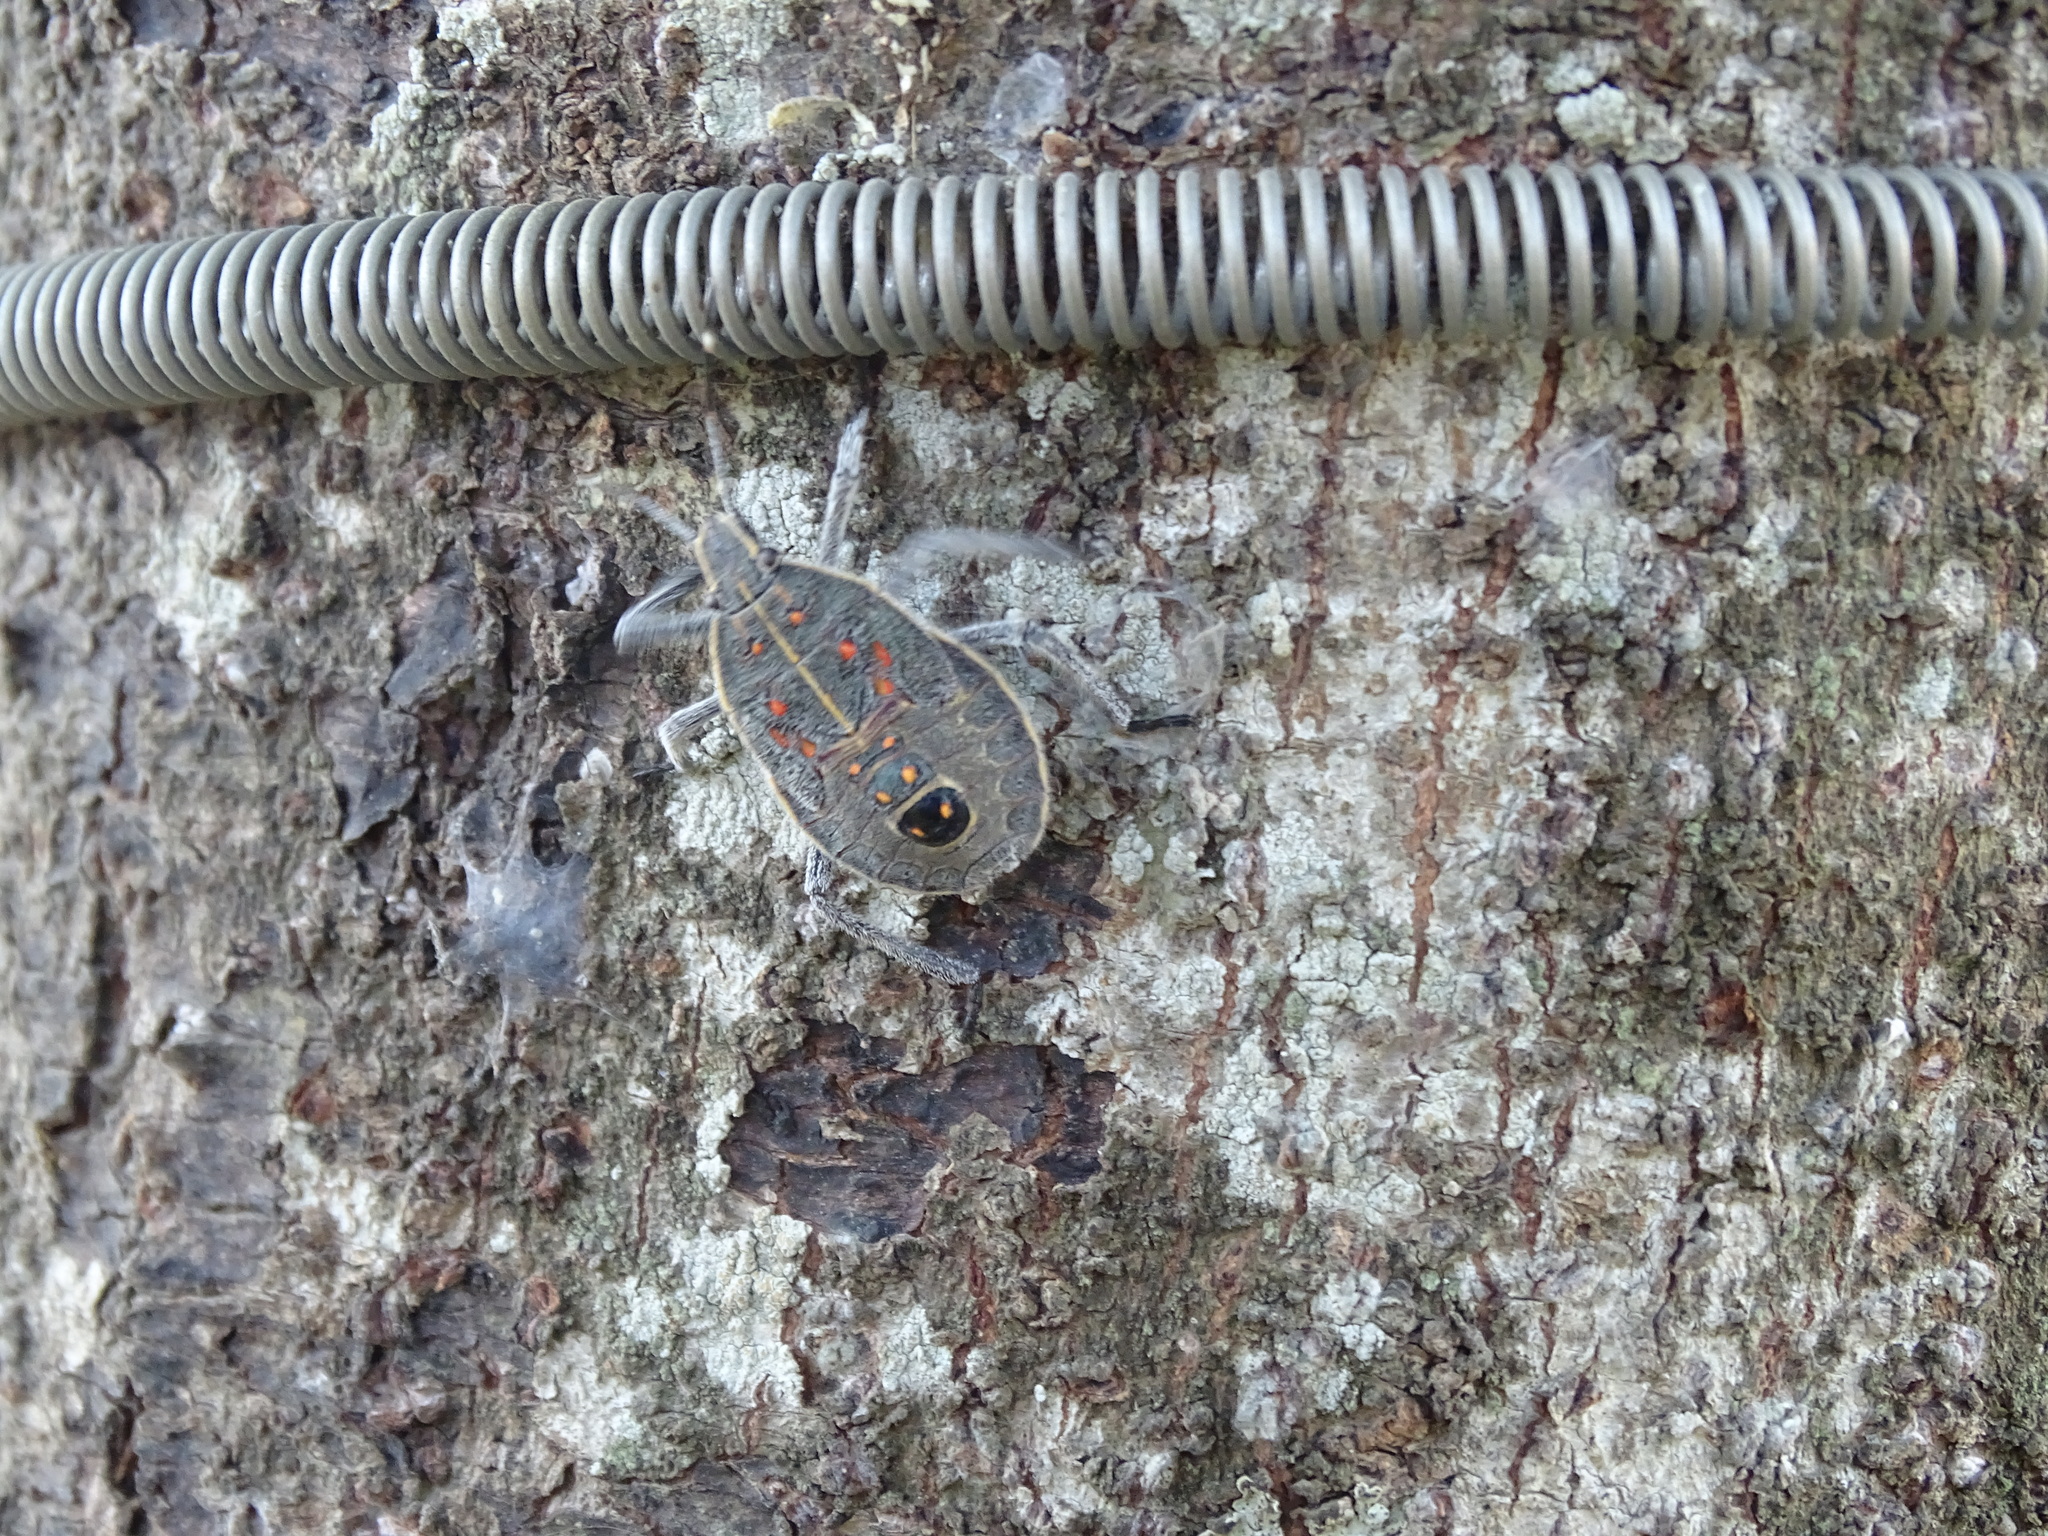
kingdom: Animalia
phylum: Arthropoda
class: Insecta
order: Hemiptera
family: Pentatomidae
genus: Erthesina
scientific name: Erthesina fullo
